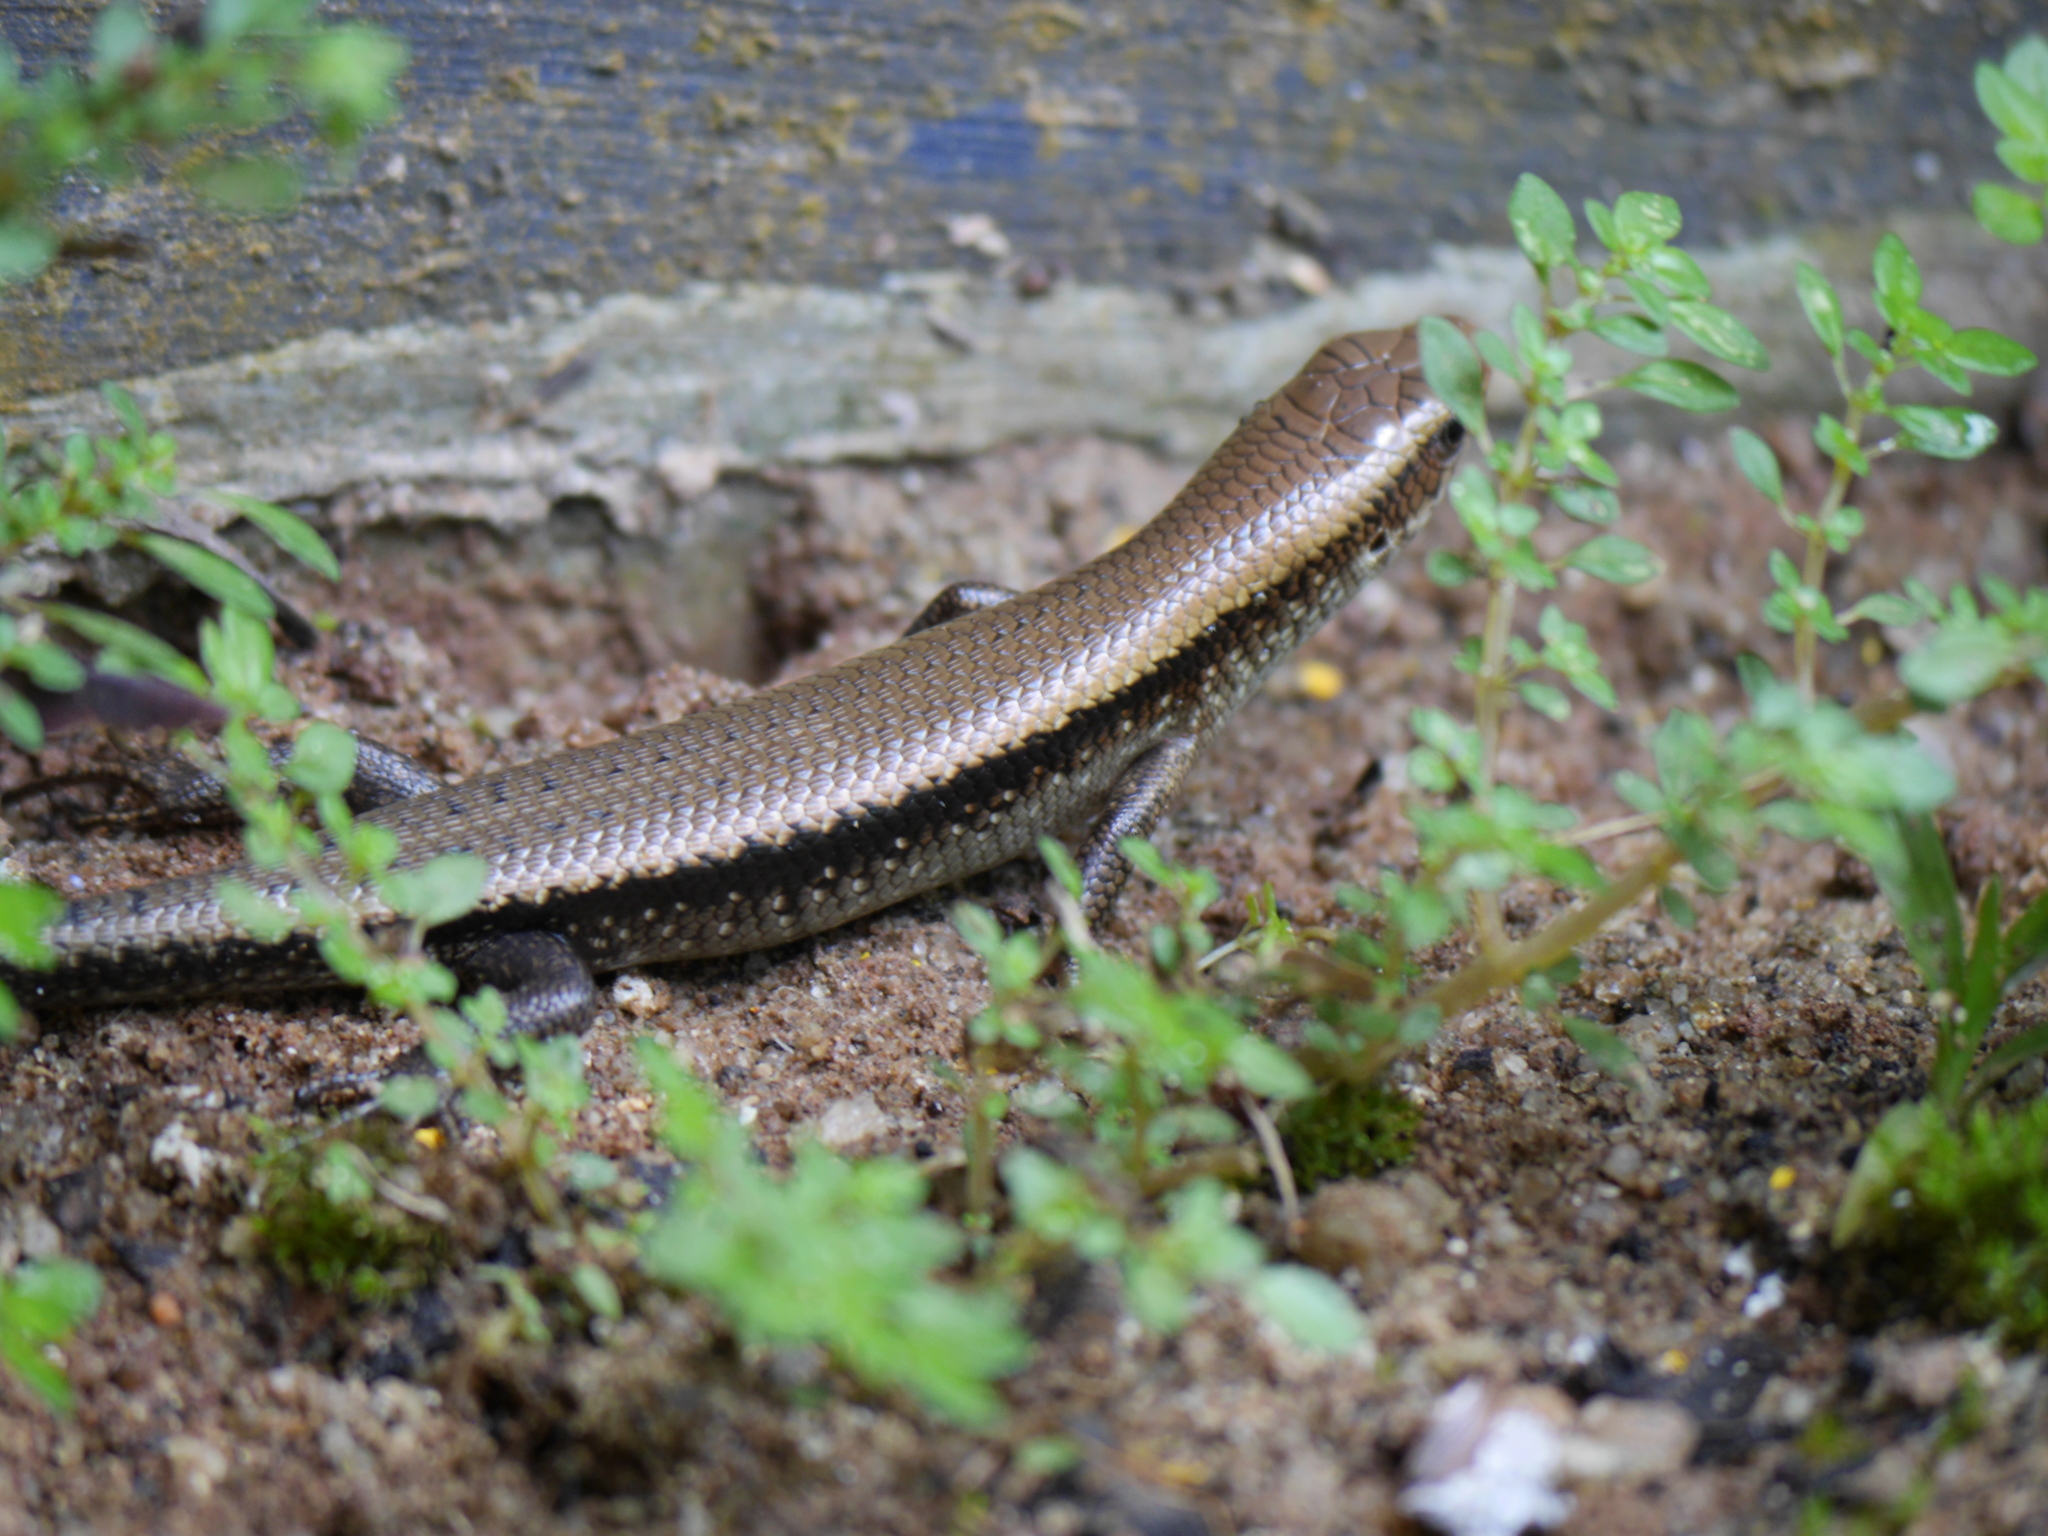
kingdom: Animalia
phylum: Chordata
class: Squamata
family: Scincidae
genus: Eutropis
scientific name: Eutropis multifasciata
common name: Common mabuya
